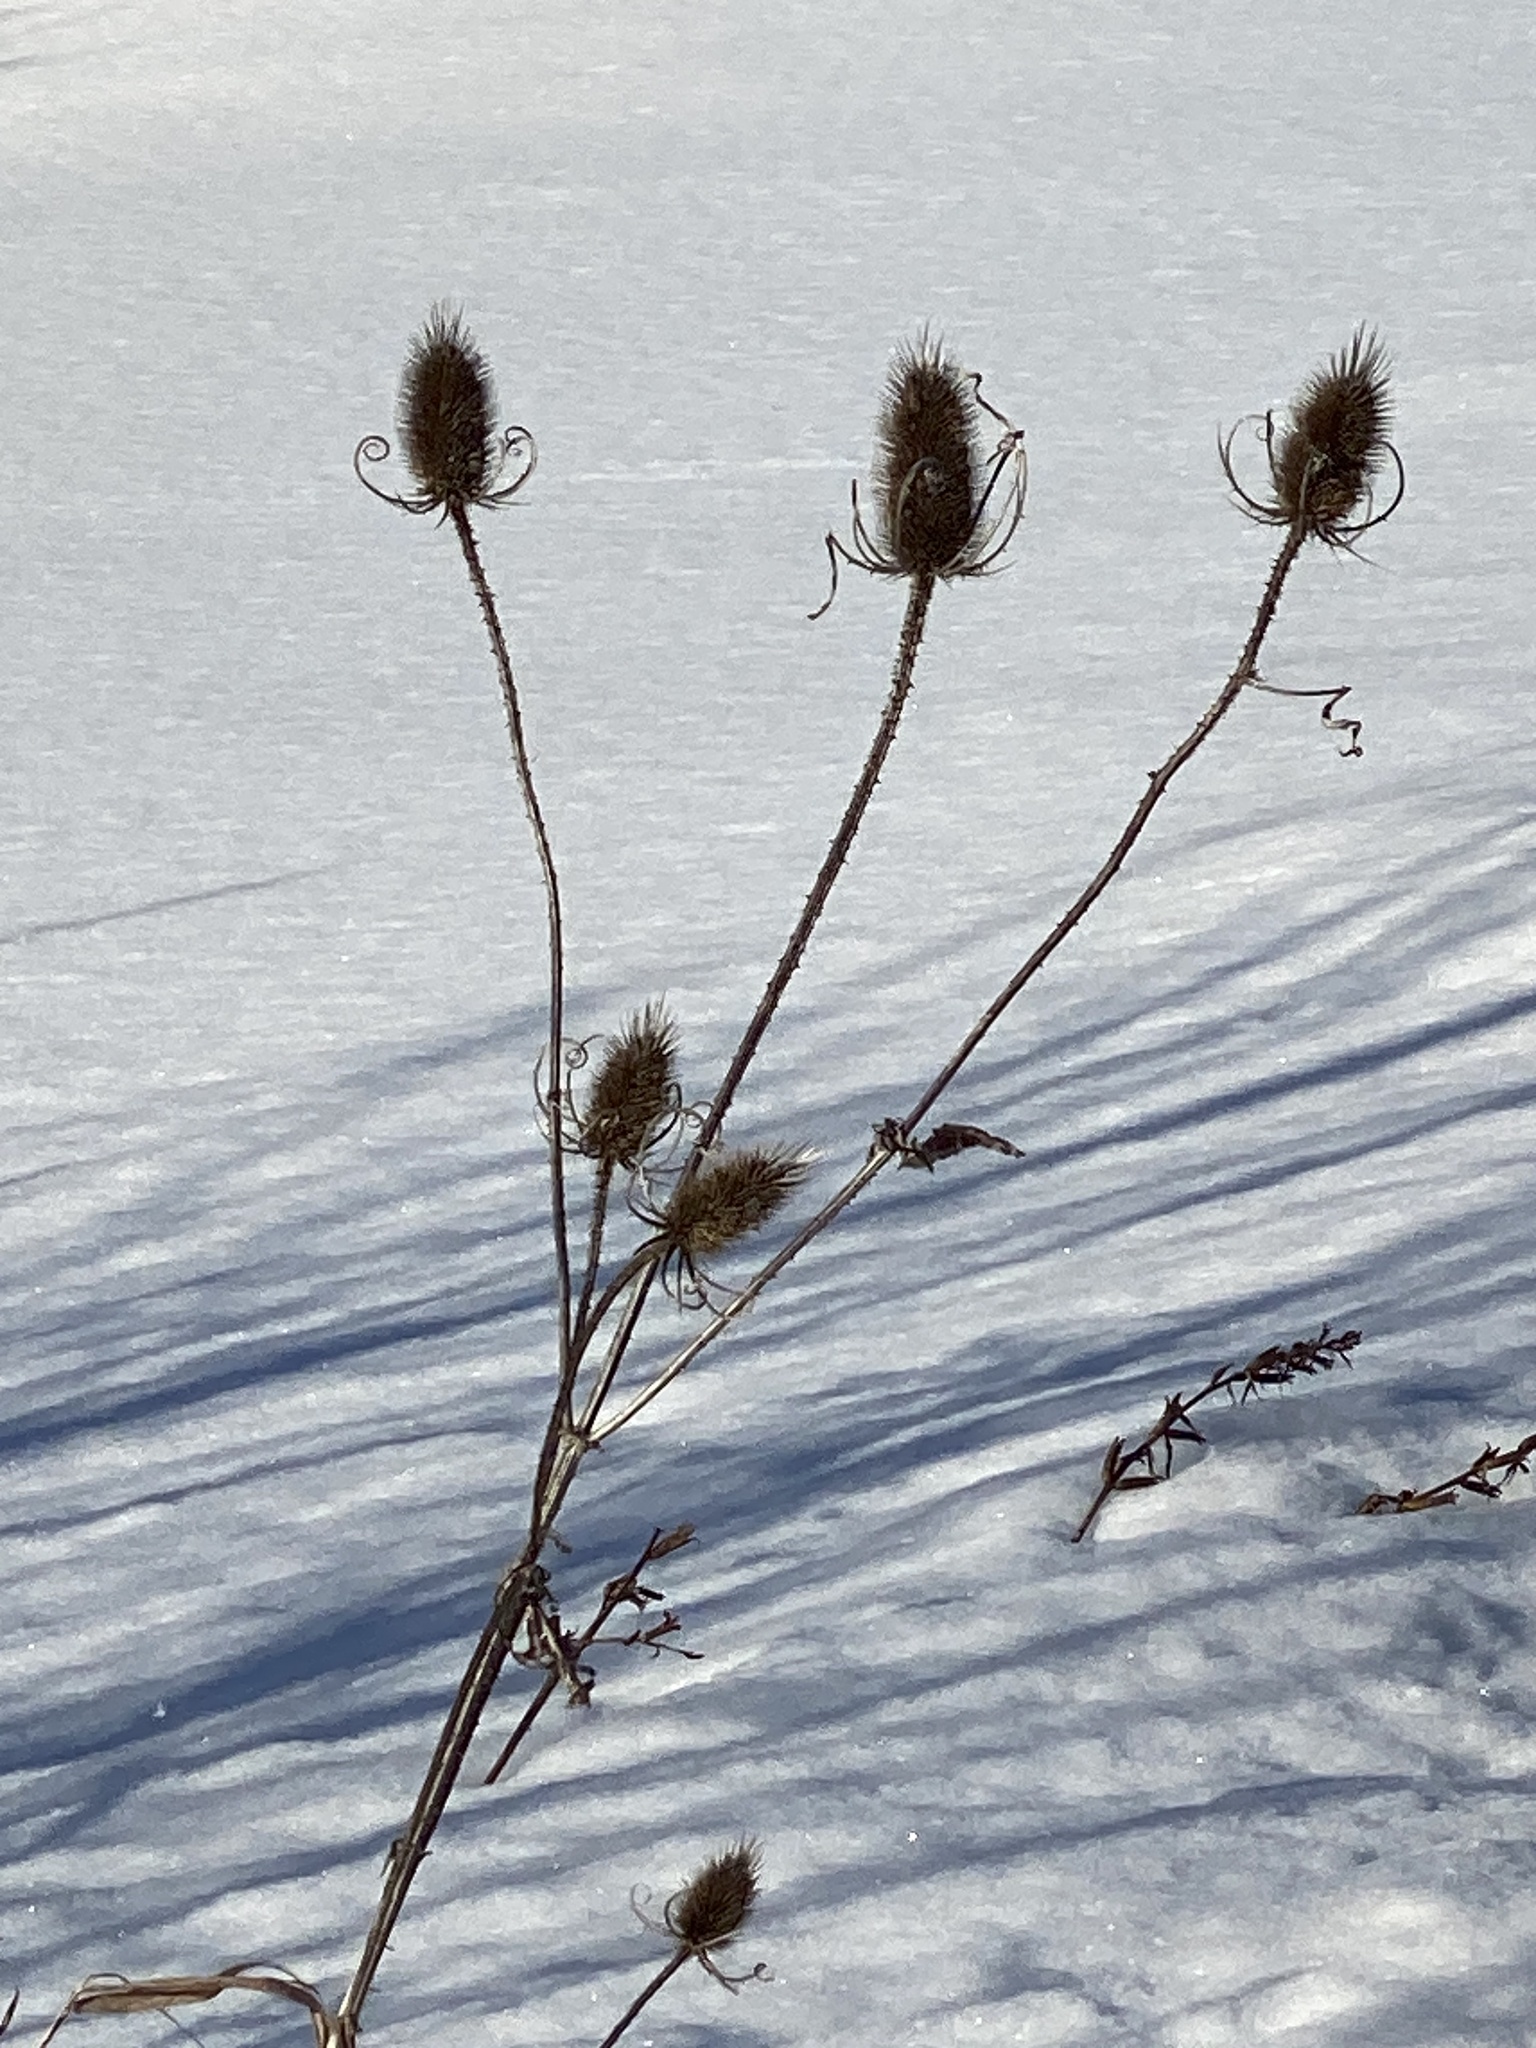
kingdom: Plantae
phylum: Tracheophyta
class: Magnoliopsida
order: Dipsacales
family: Caprifoliaceae
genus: Dipsacus
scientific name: Dipsacus fullonum
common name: Teasel
